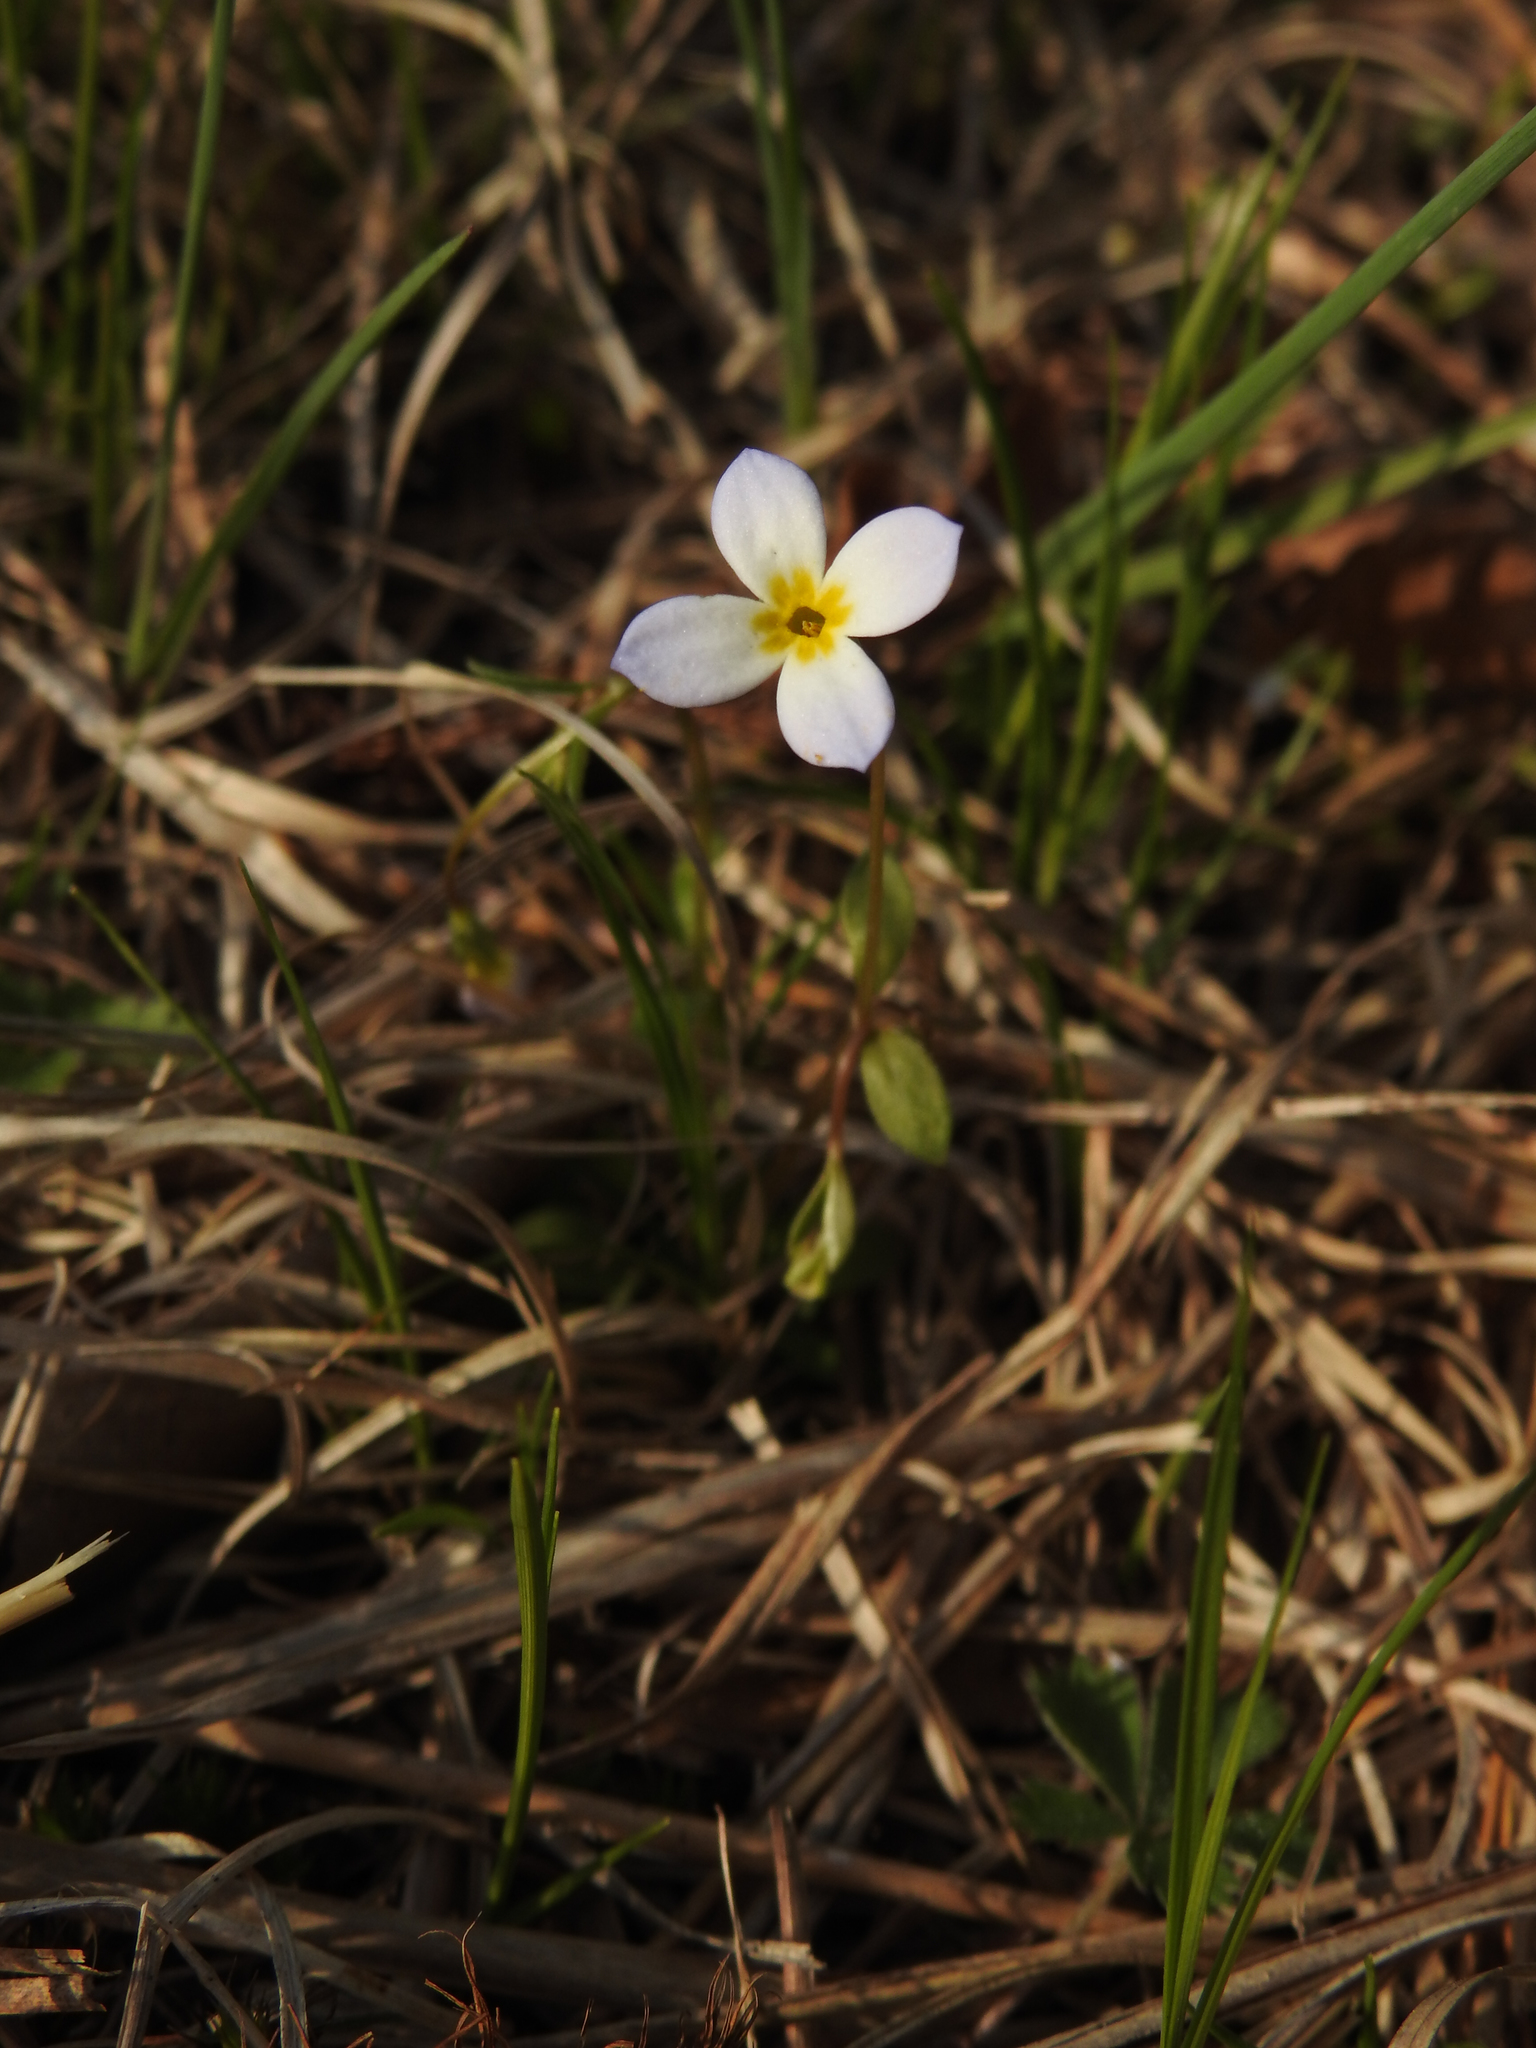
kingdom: Plantae
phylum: Tracheophyta
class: Magnoliopsida
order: Gentianales
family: Rubiaceae
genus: Houstonia
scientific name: Houstonia caerulea
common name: Bluets
